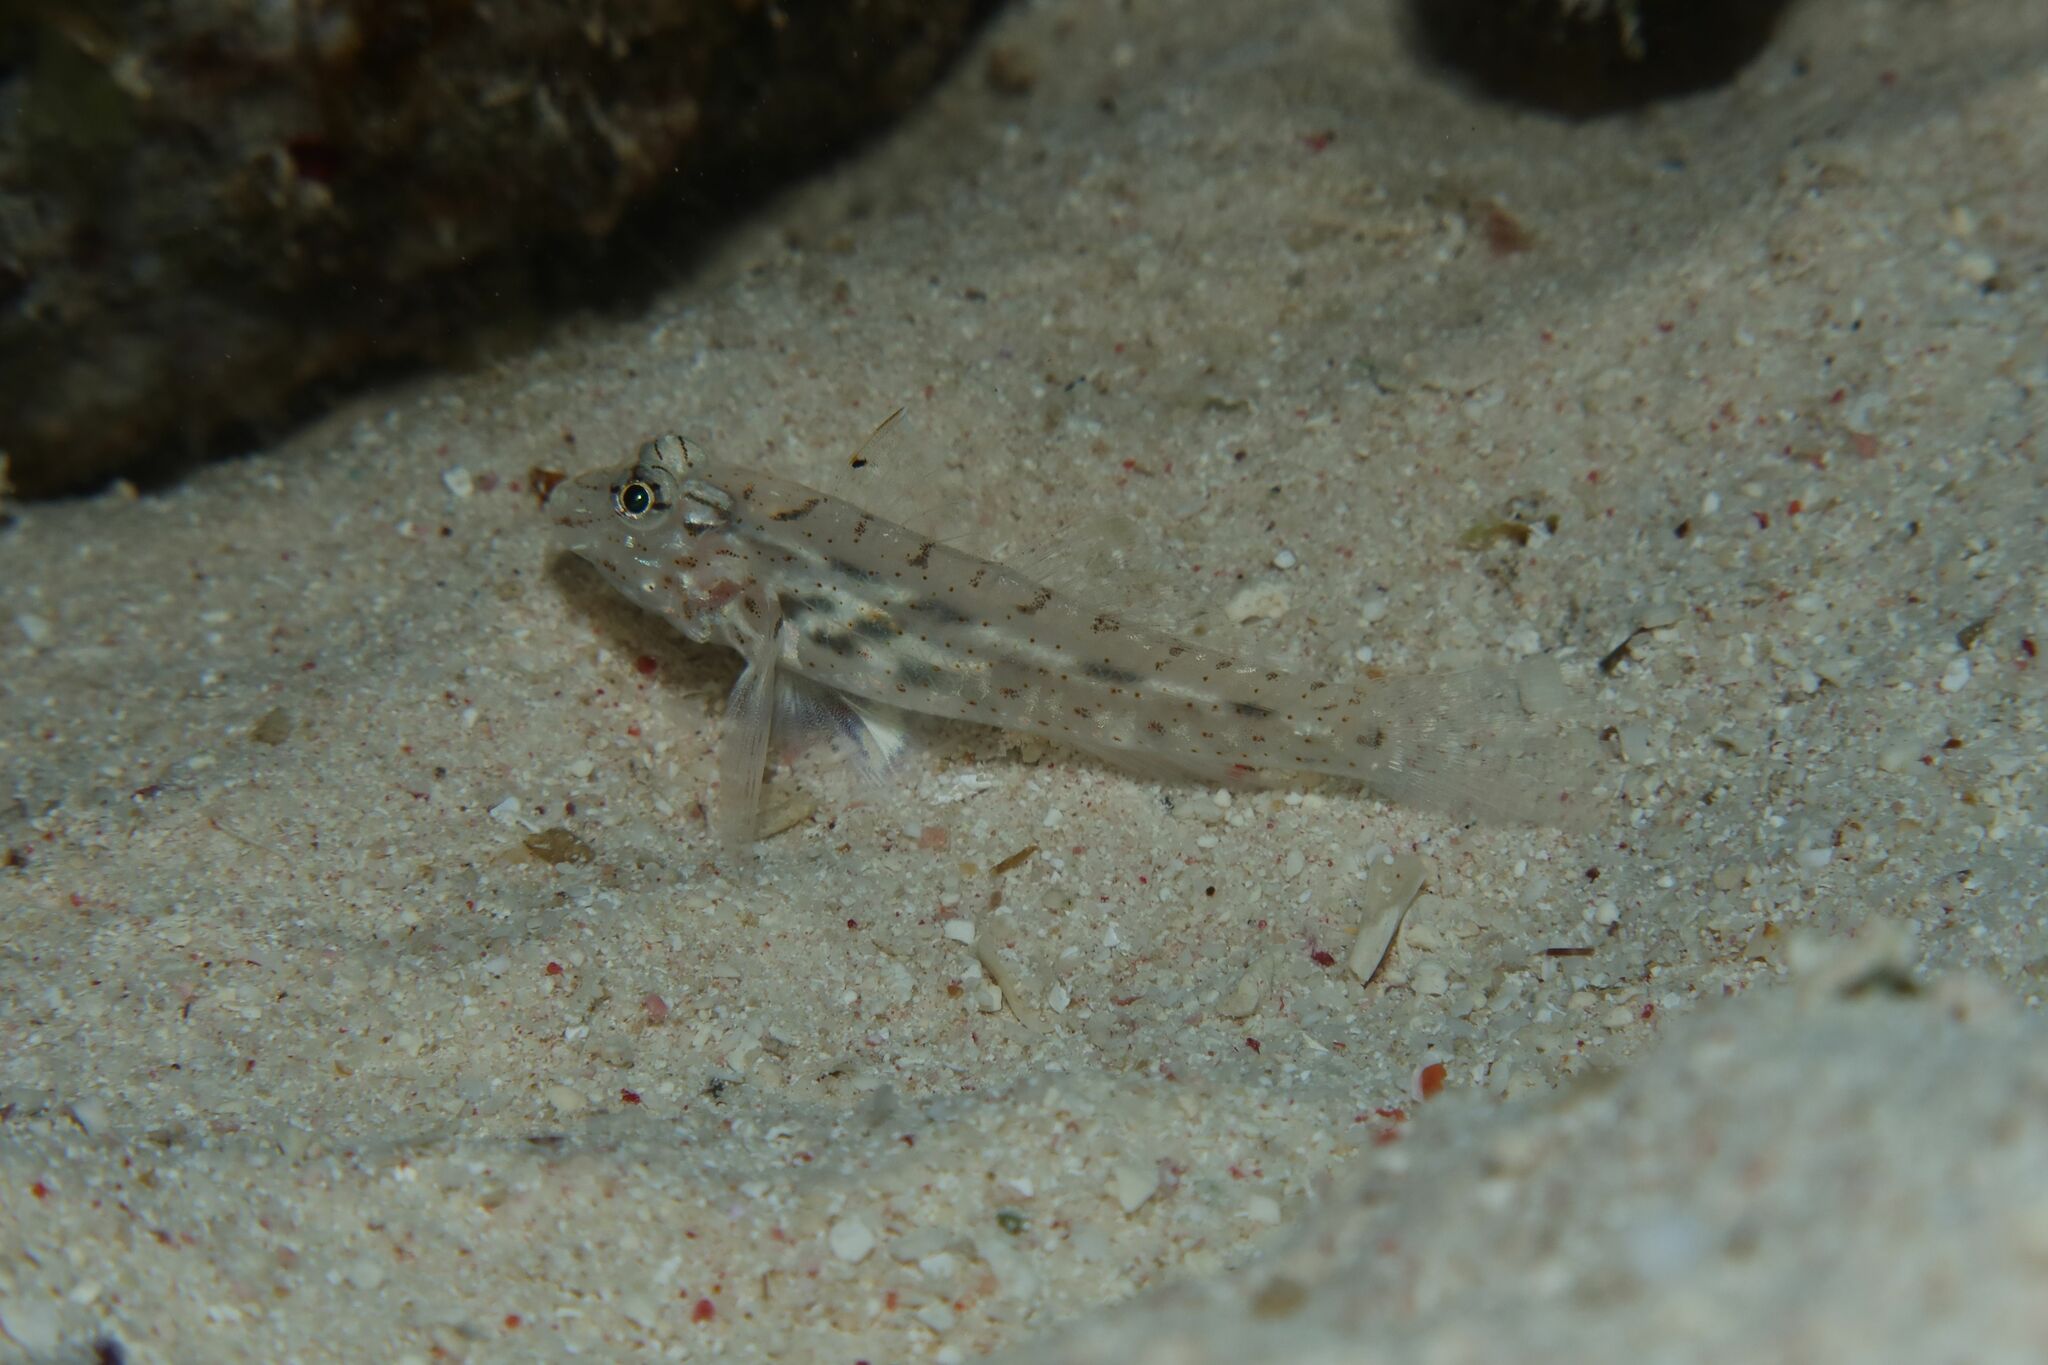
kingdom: Animalia
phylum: Chordata
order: Perciformes
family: Gobiidae
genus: Fusigobius
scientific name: Fusigobius neophytus
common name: Sand goby
